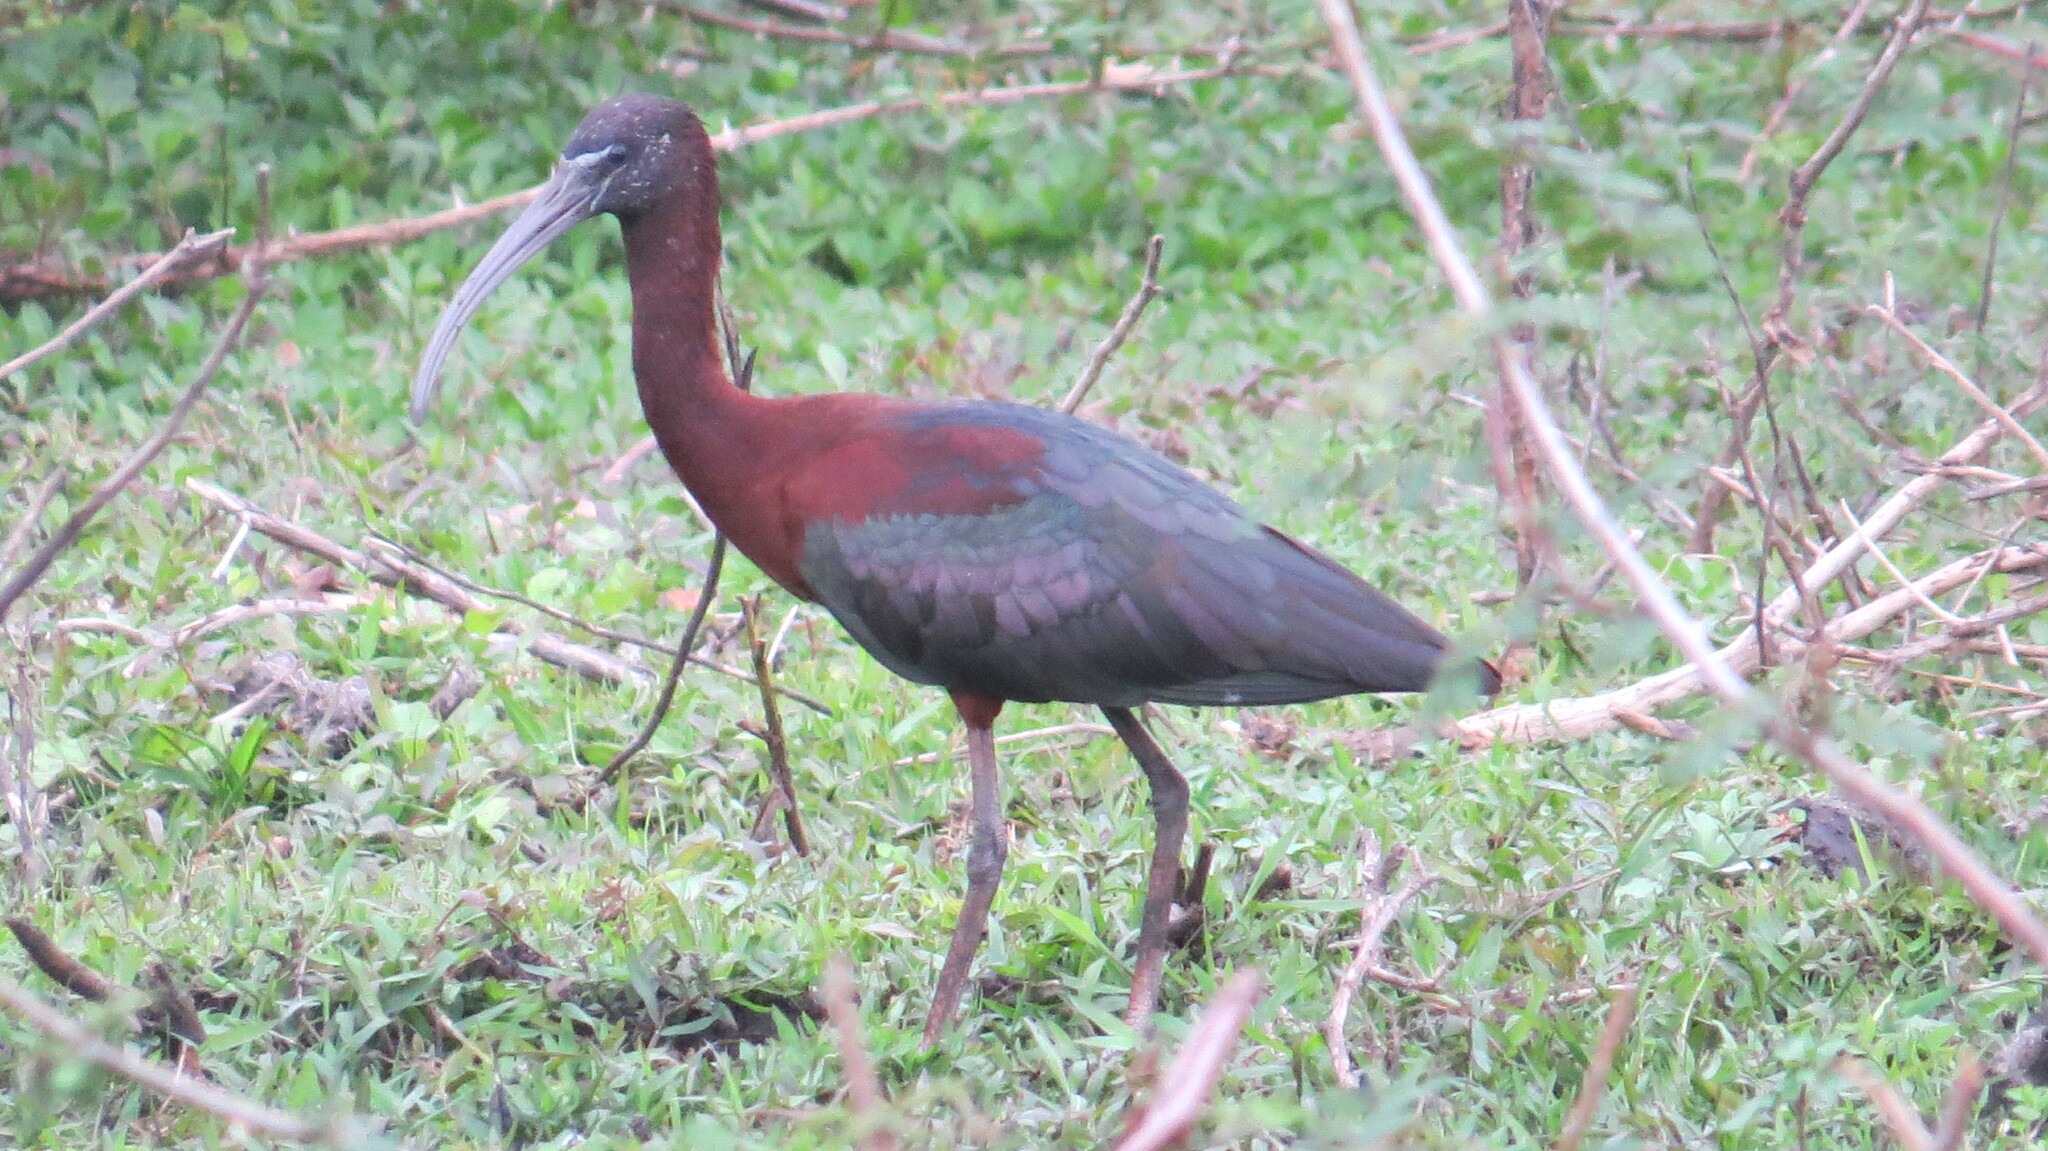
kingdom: Animalia
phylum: Chordata
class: Aves
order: Pelecaniformes
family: Threskiornithidae
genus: Plegadis
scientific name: Plegadis falcinellus
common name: Glossy ibis
